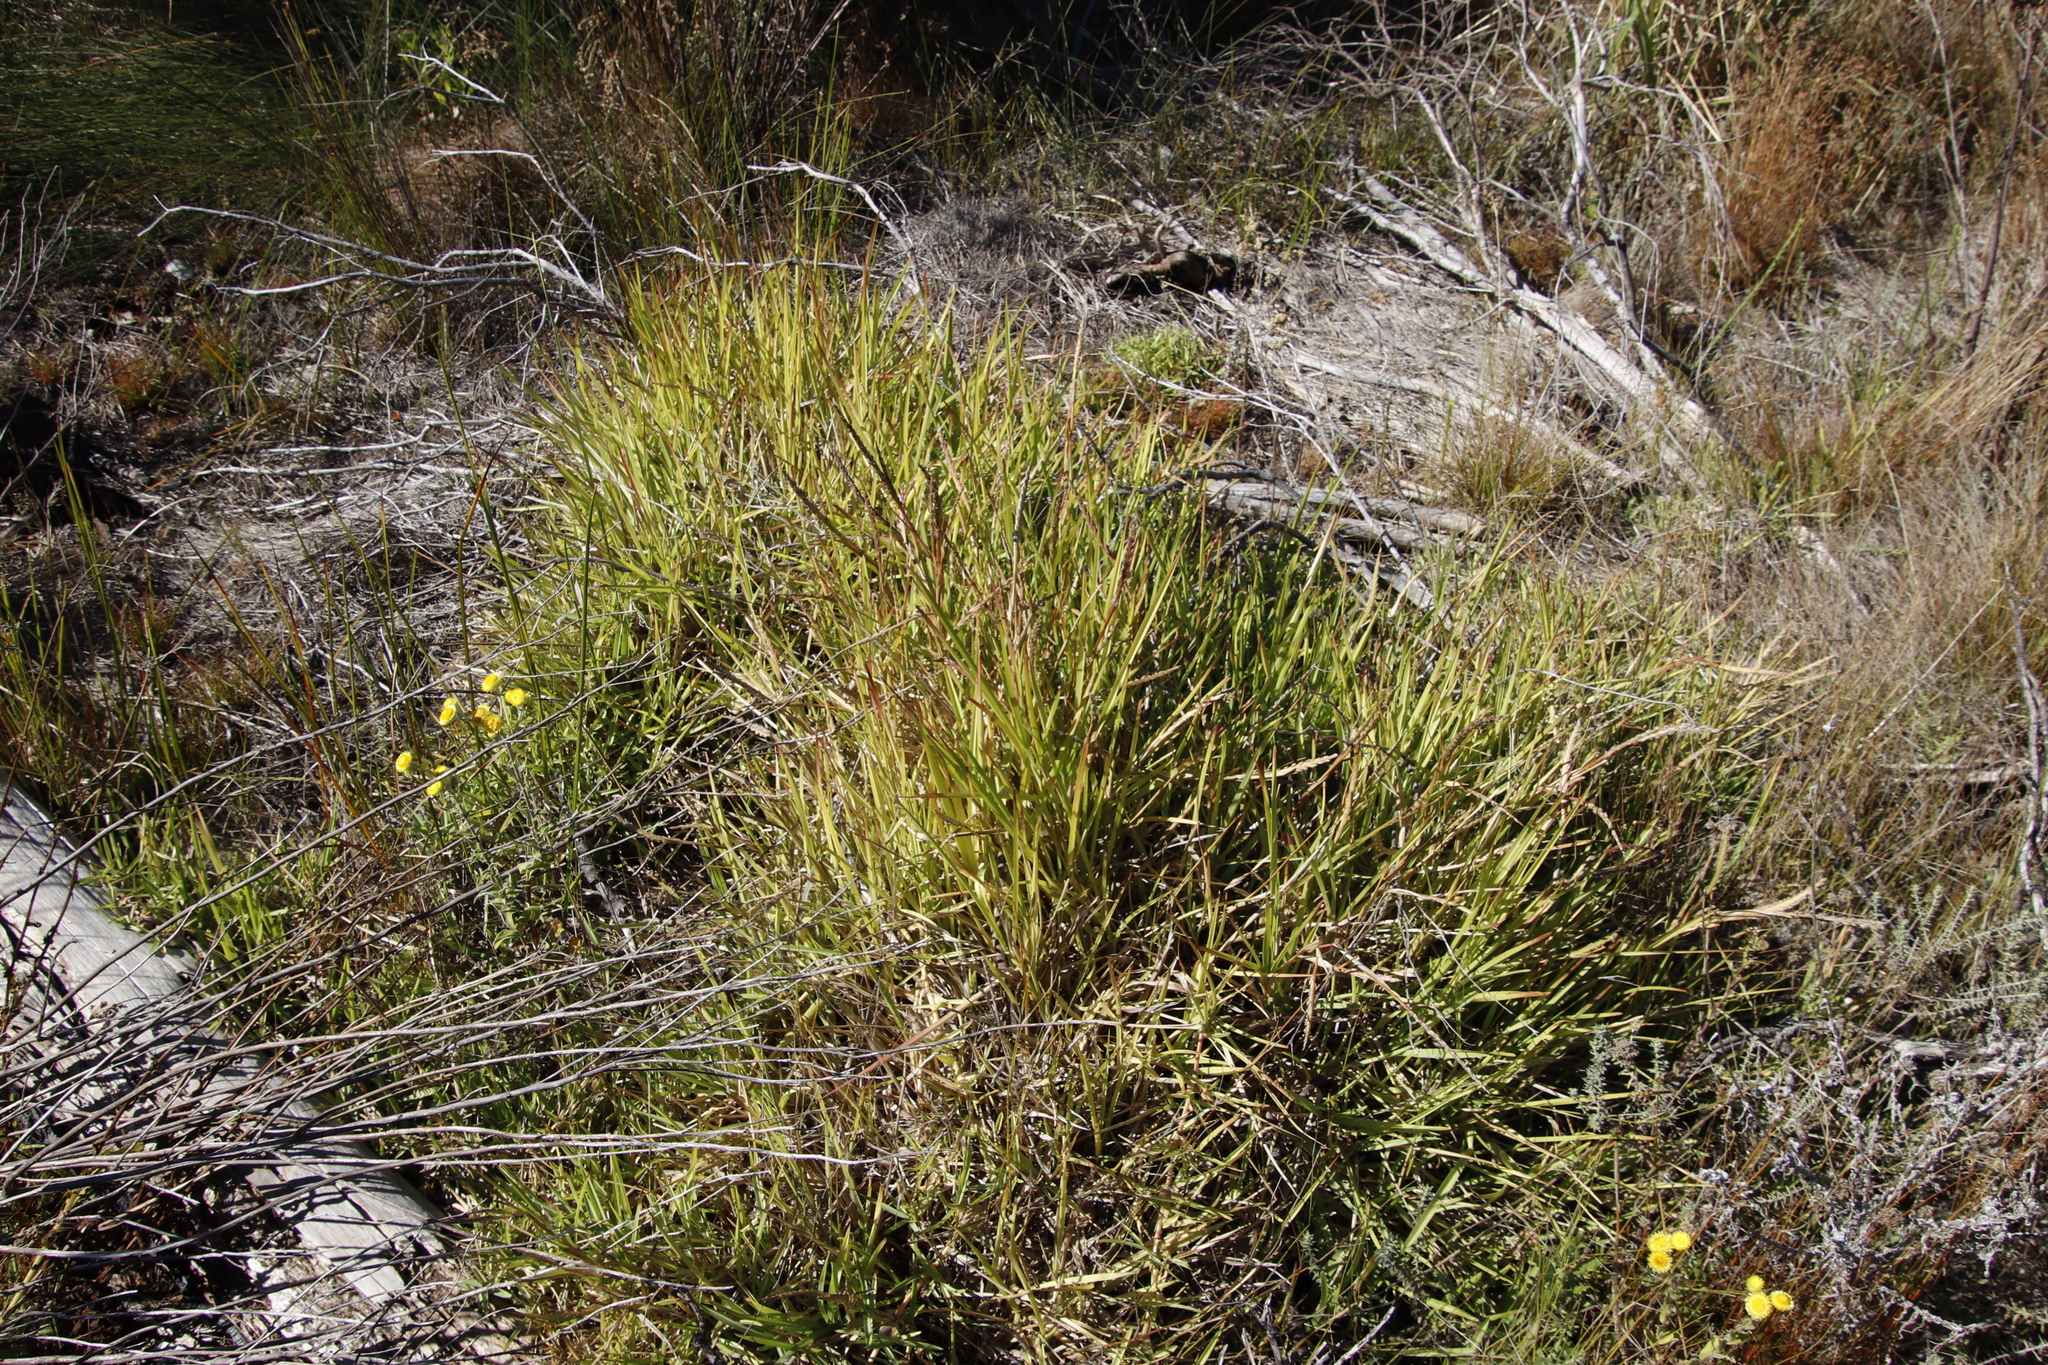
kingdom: Plantae
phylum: Tracheophyta
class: Liliopsida
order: Poales
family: Poaceae
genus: Stenotaphrum
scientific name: Stenotaphrum secundatum
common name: St. augustine grass
